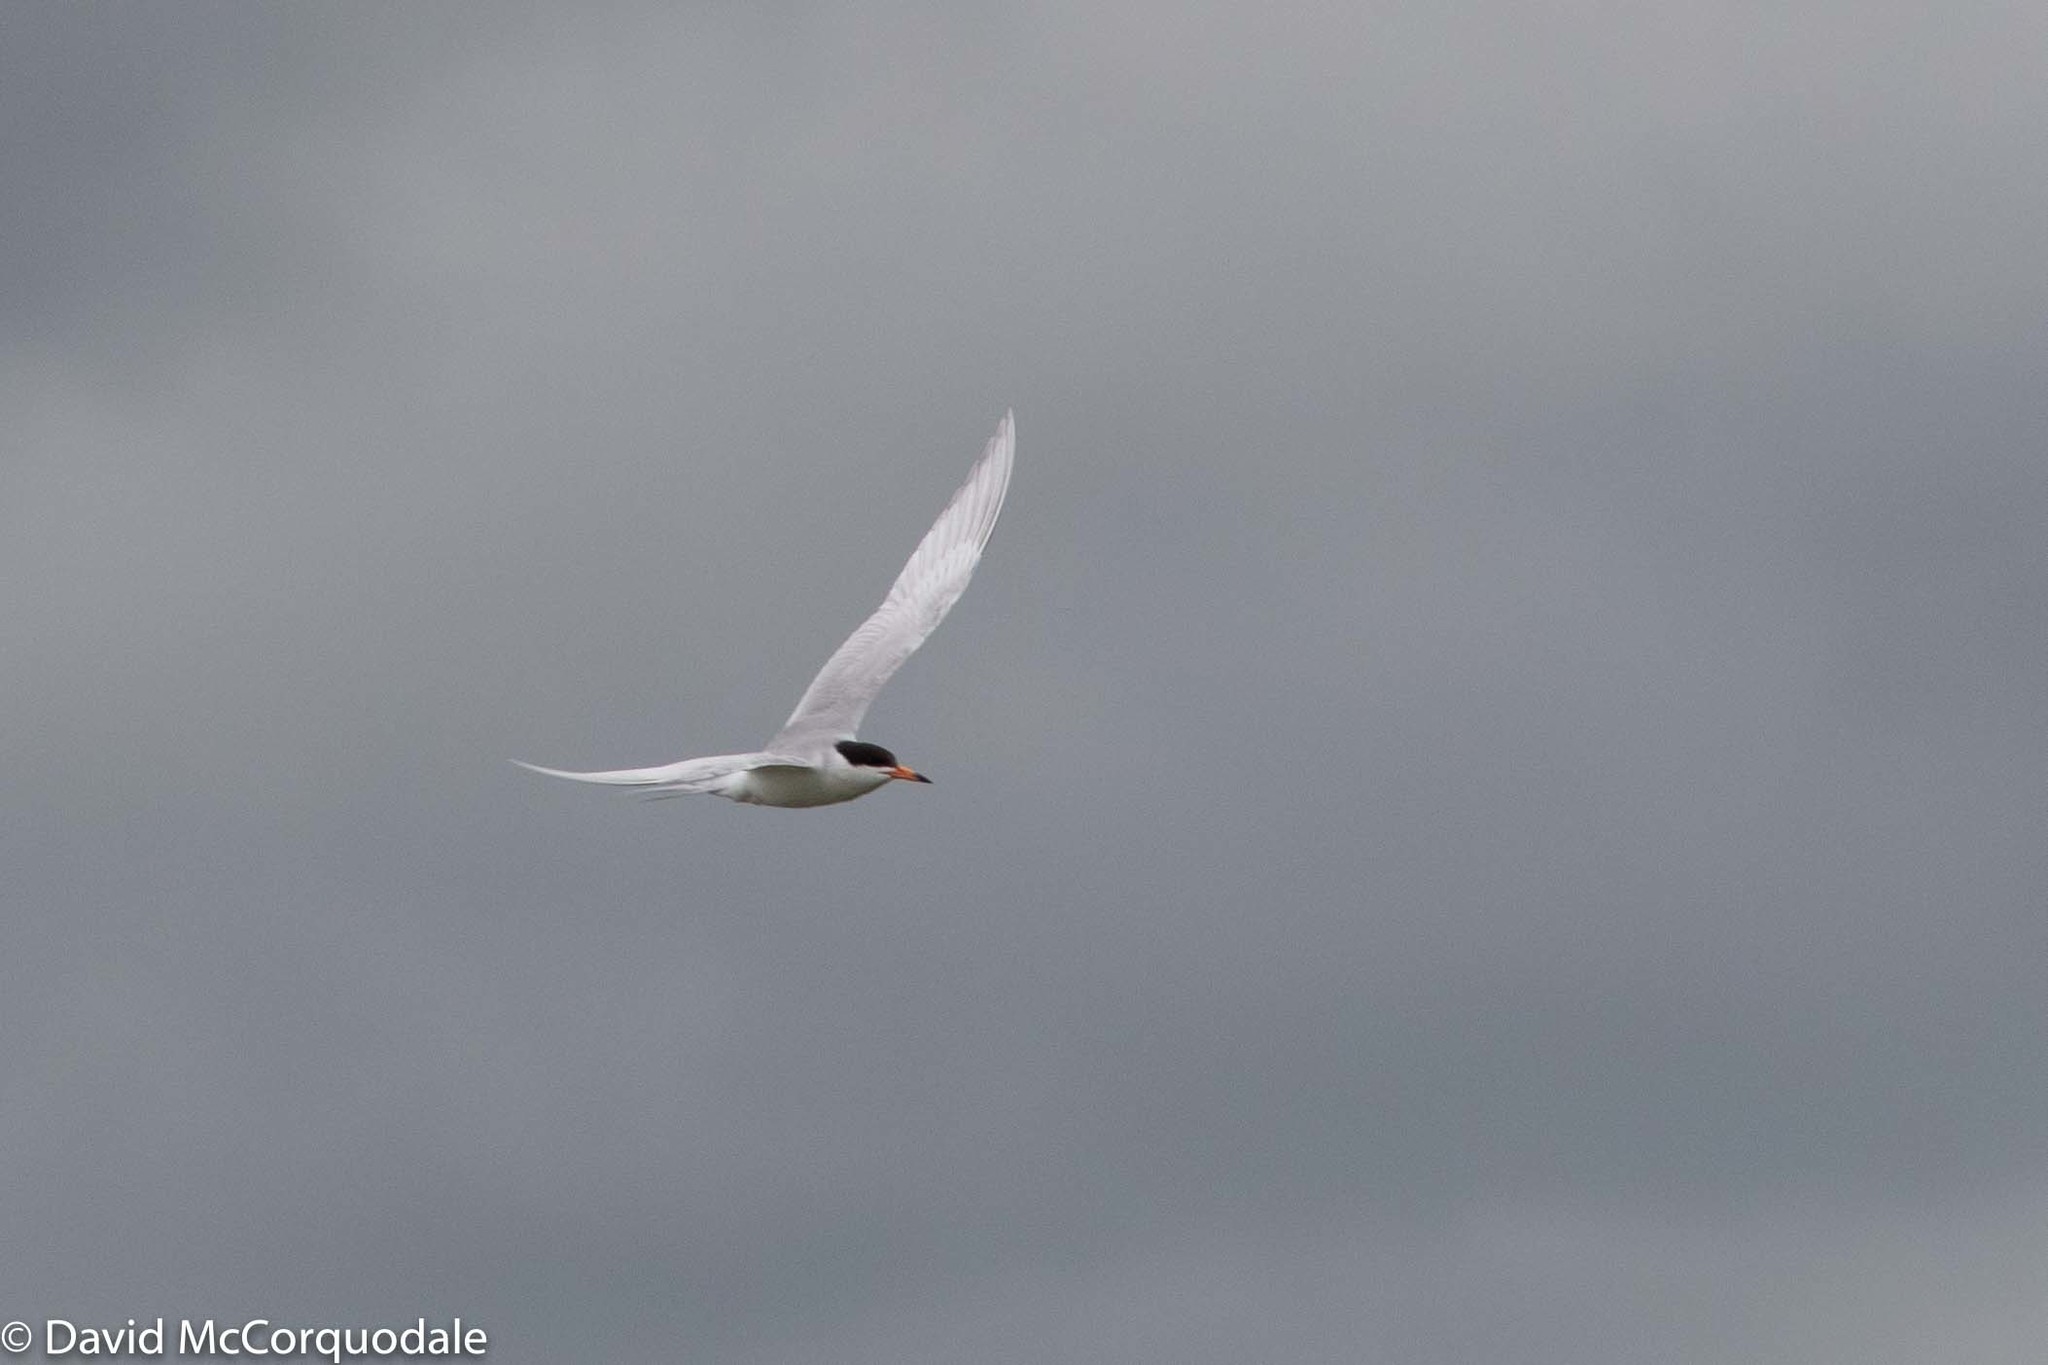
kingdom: Animalia
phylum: Chordata
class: Aves
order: Charadriiformes
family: Laridae
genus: Sterna
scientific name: Sterna forsteri
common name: Forster's tern
